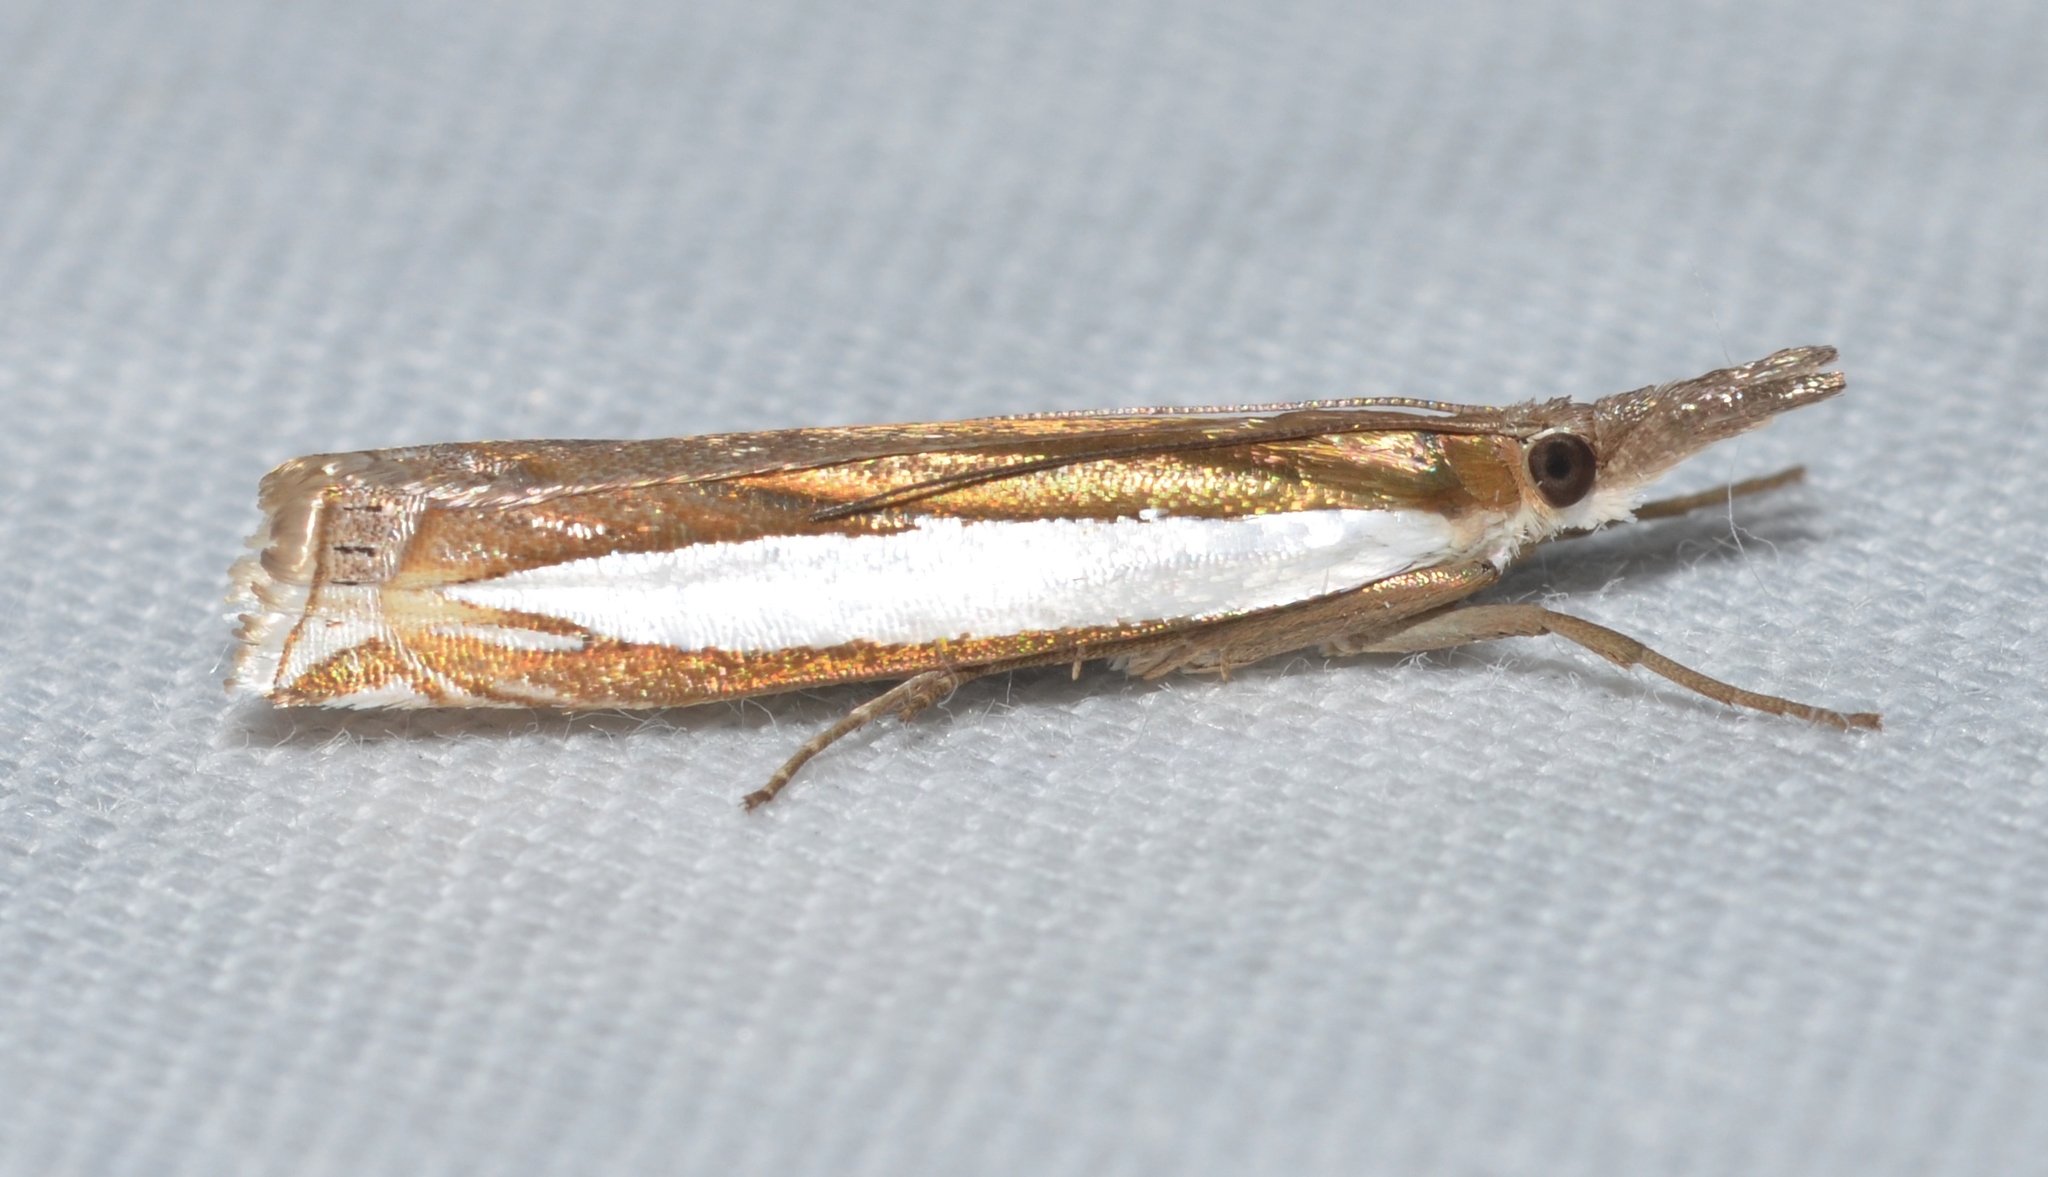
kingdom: Animalia
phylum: Arthropoda
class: Insecta
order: Lepidoptera
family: Crambidae
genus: Crambus
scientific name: Crambus leachellus
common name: Leach's grass-veneer
